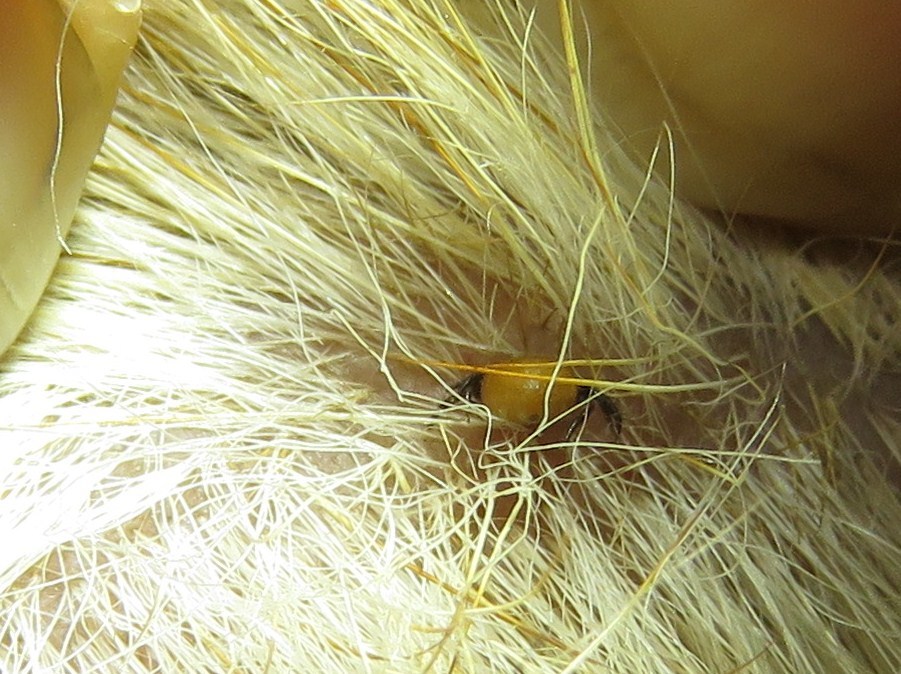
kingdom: Animalia
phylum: Arthropoda
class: Arachnida
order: Ixodida
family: Ixodidae
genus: Ixodes
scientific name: Ixodes ricinus
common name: Castor bean tick
